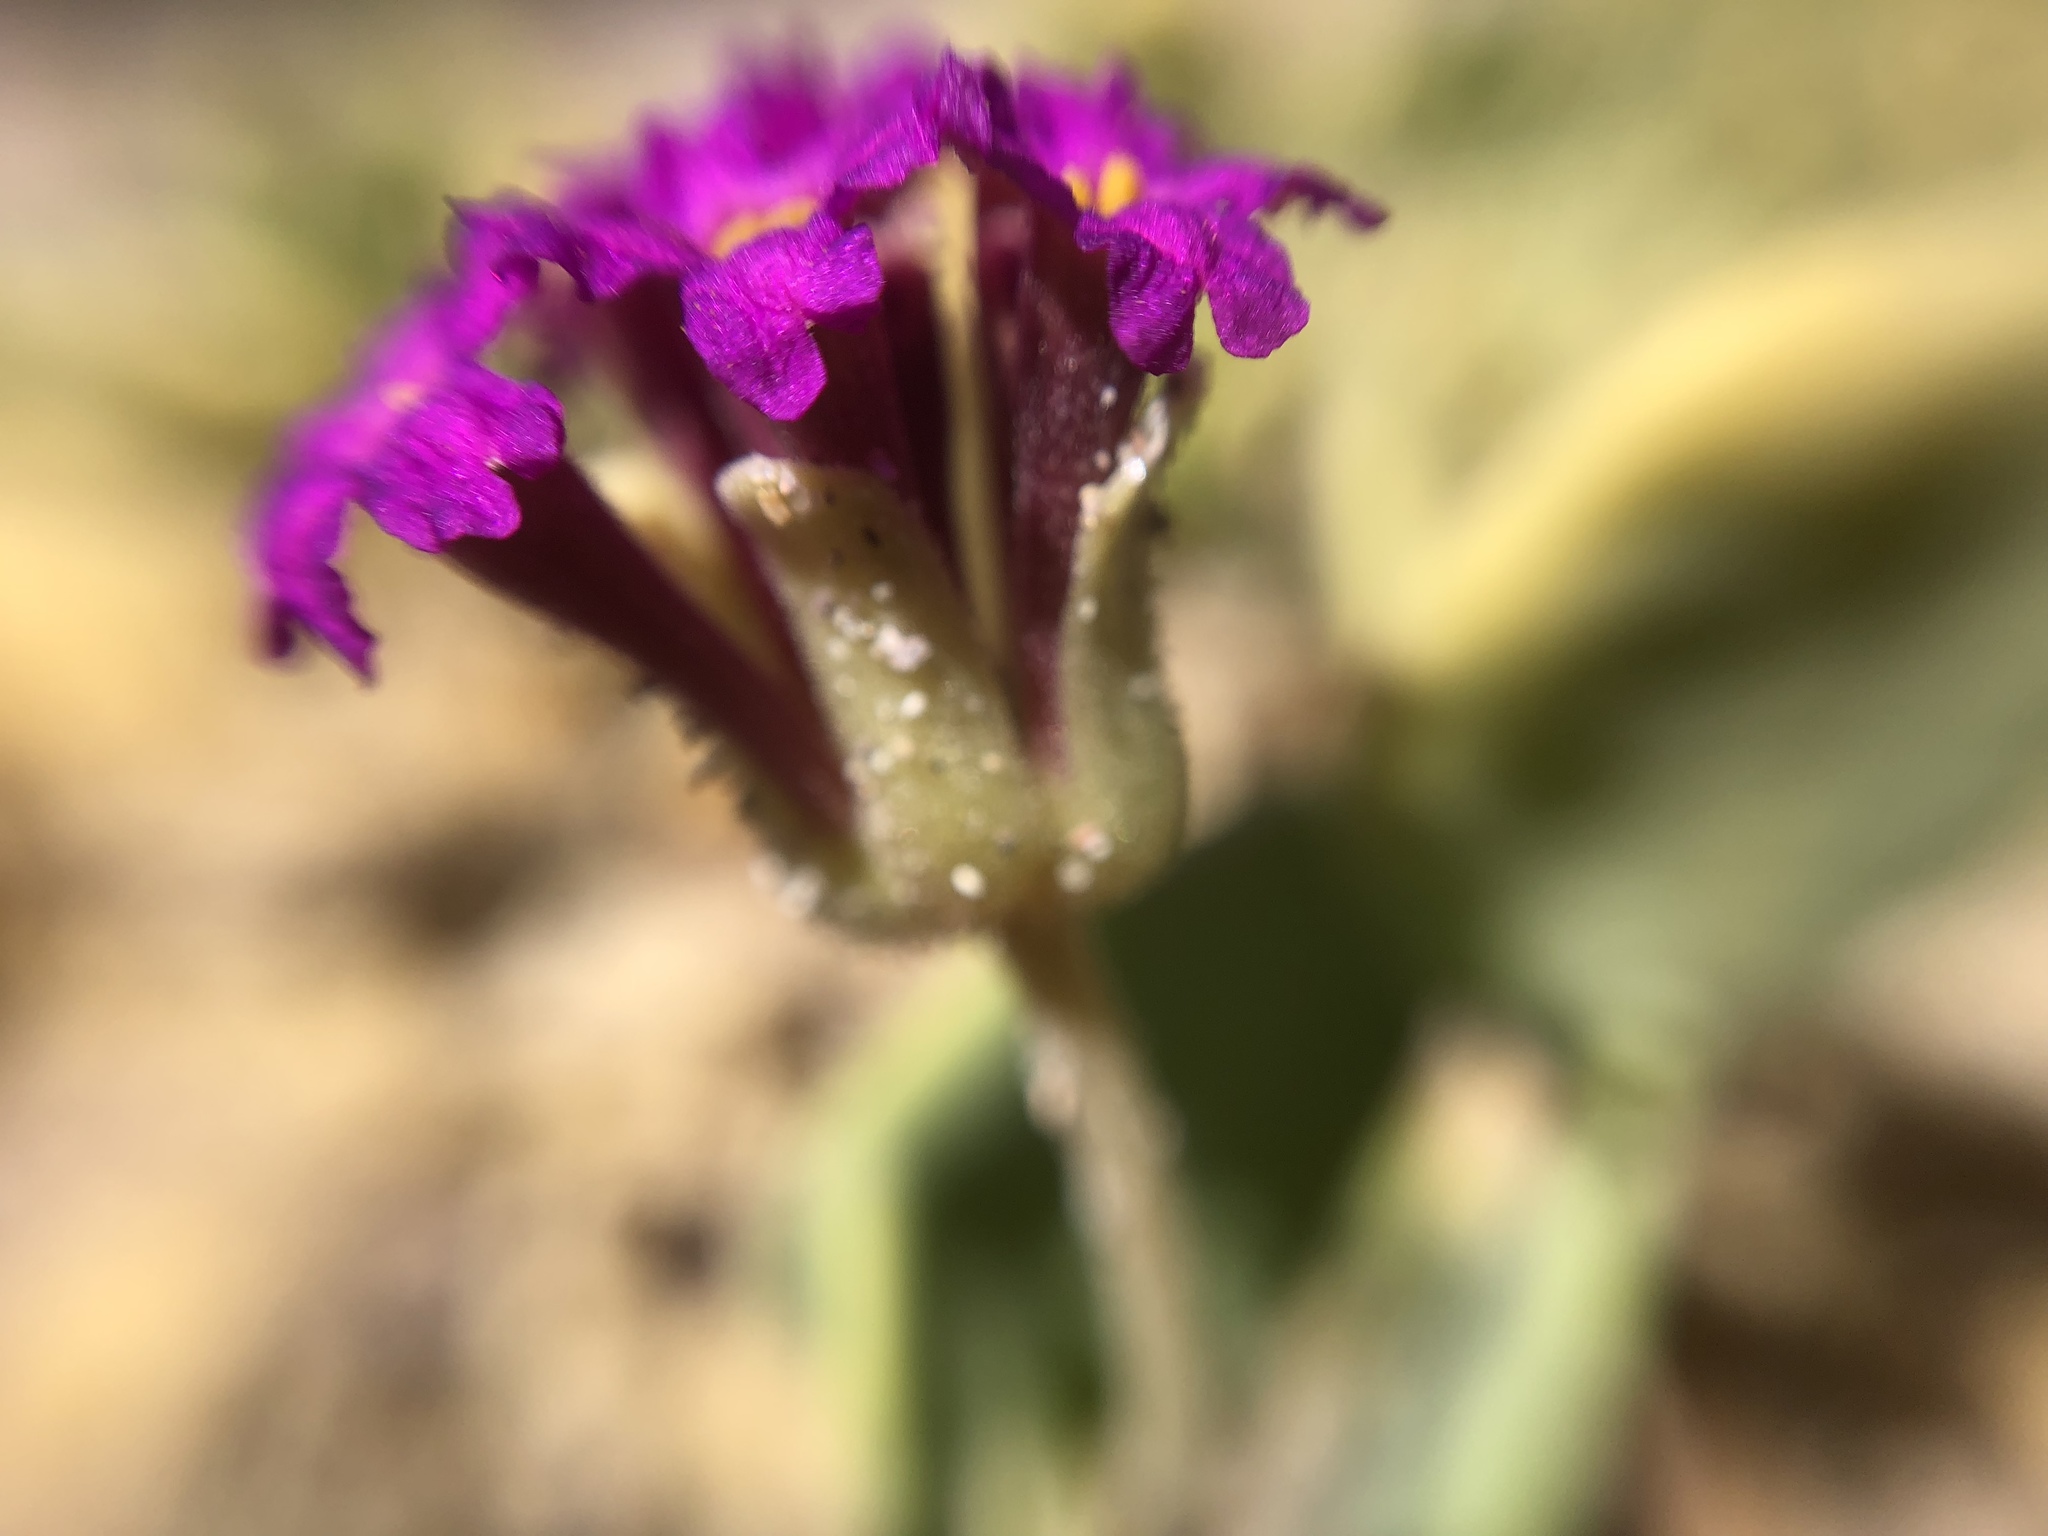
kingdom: Plantae
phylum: Tracheophyta
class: Magnoliopsida
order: Caryophyllales
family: Nyctaginaceae
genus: Abronia
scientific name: Abronia maritima
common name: Red sand-verbena
